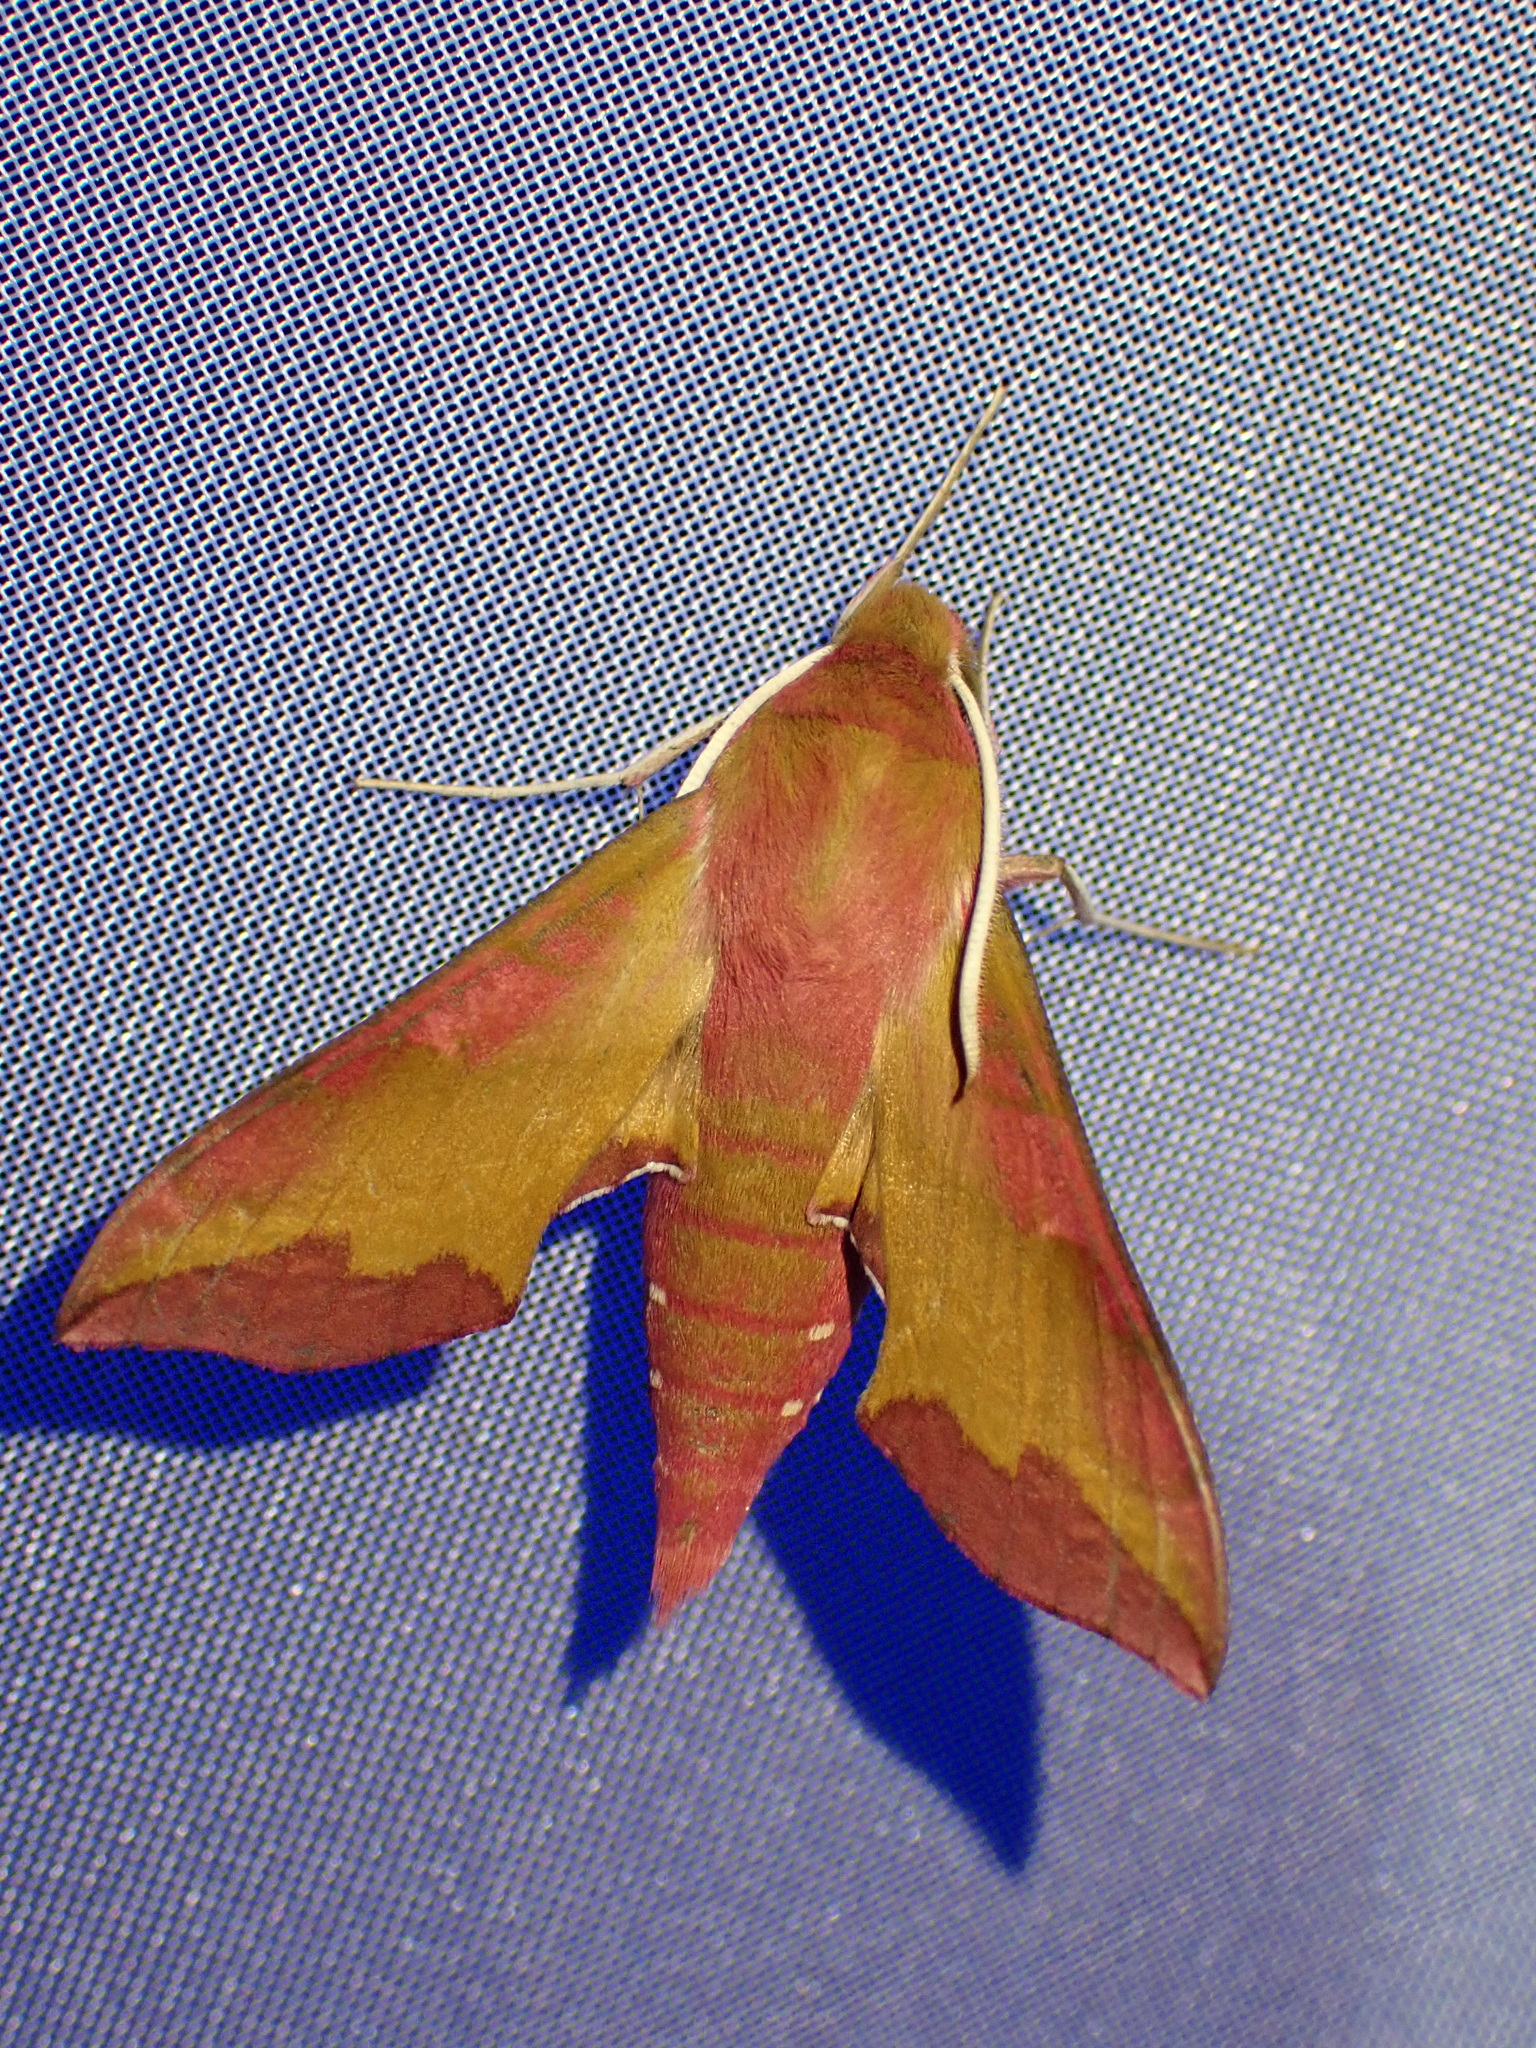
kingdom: Animalia
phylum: Arthropoda
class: Insecta
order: Lepidoptera
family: Sphingidae
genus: Deilephila
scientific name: Deilephila porcellus
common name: Small elephant hawk-moth
